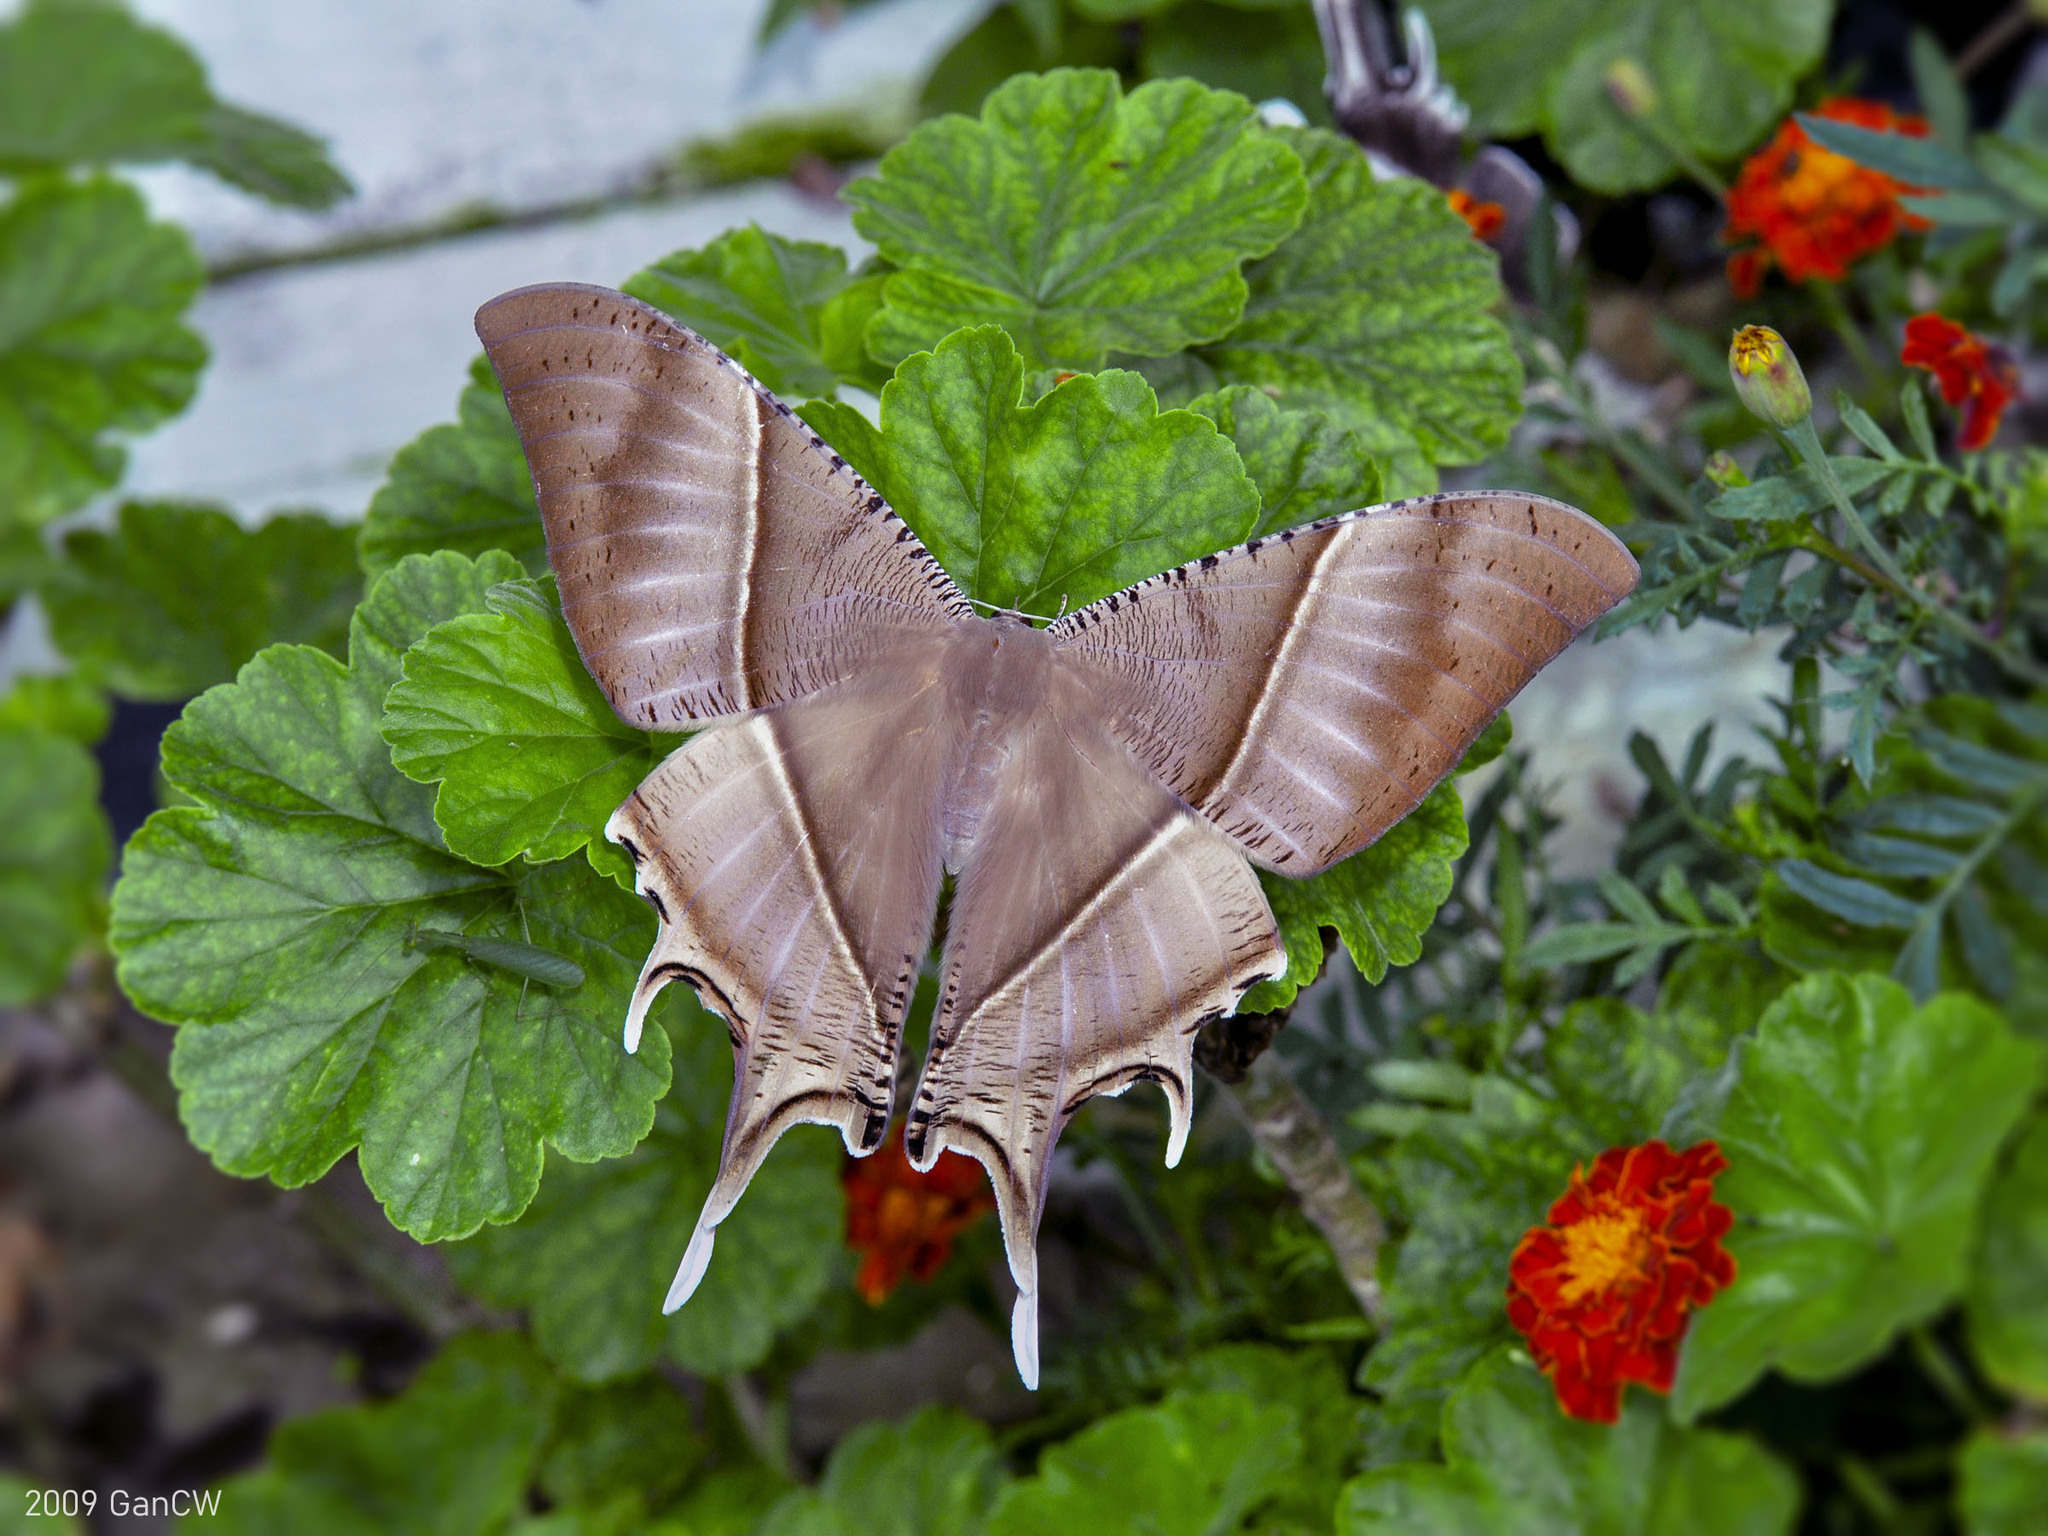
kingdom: Animalia
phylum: Arthropoda
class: Insecta
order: Lepidoptera
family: Uraniidae
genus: Lyssa
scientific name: Lyssa zampa
